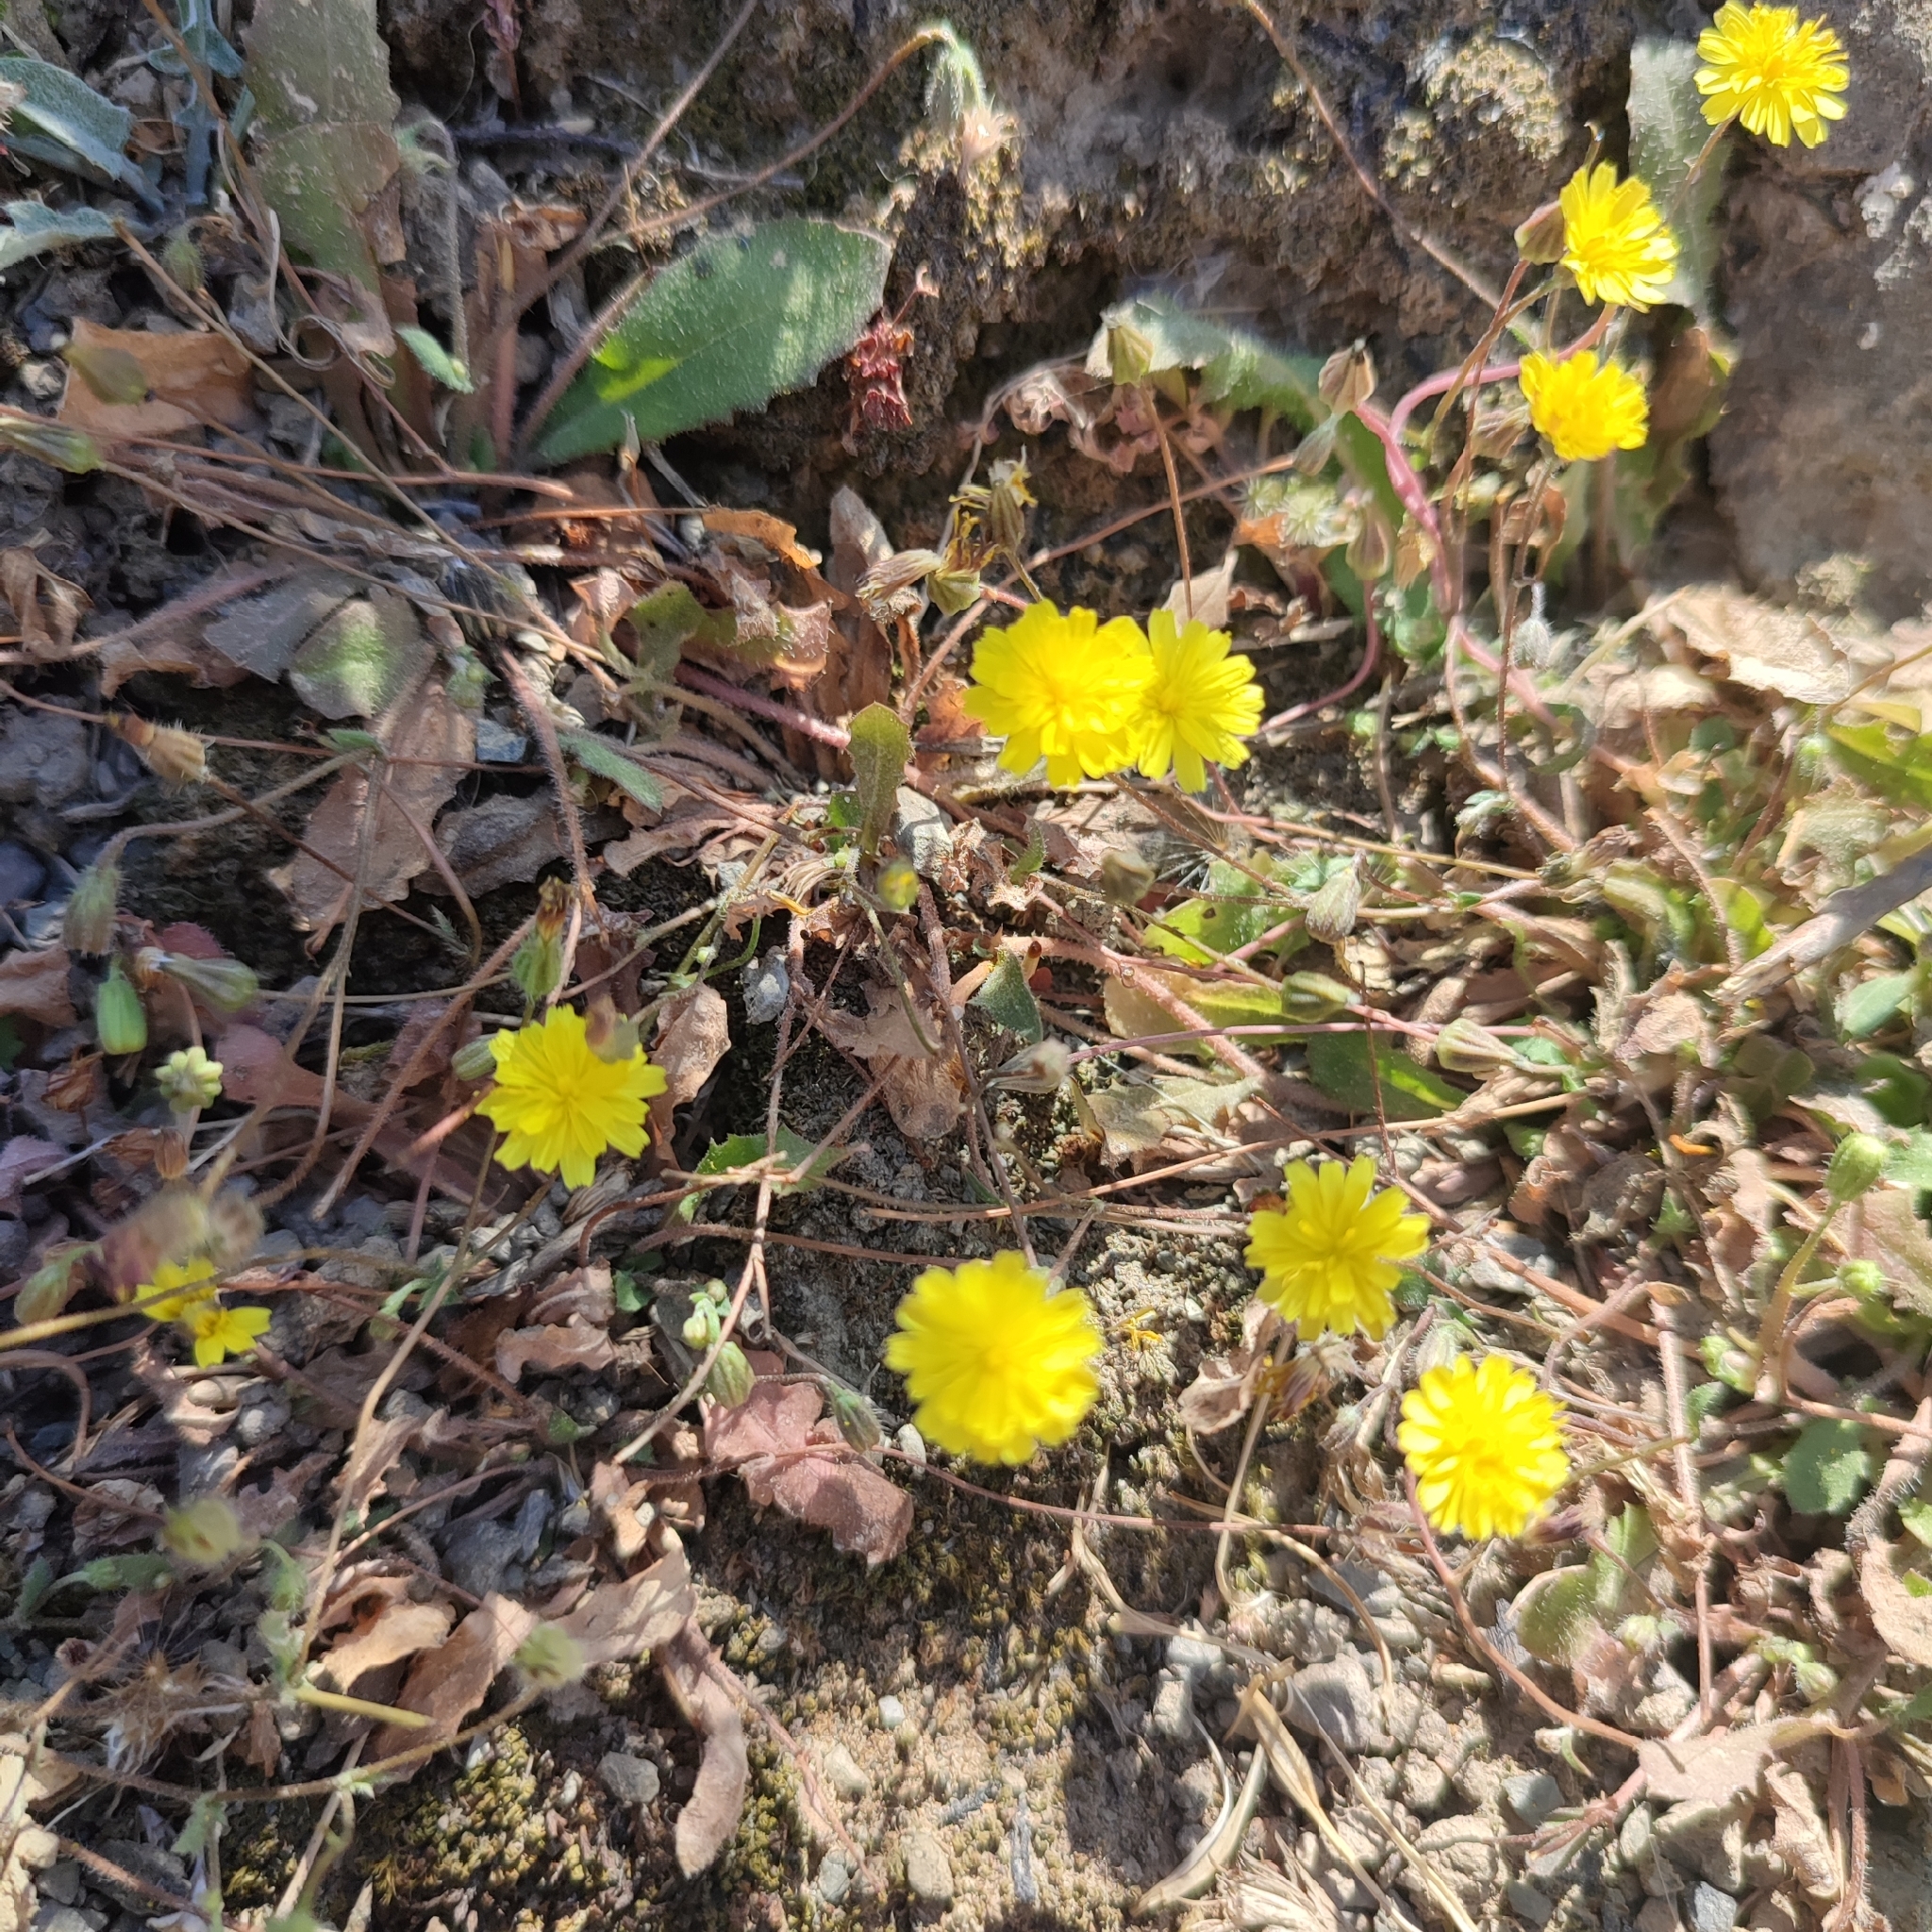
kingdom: Plantae
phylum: Tracheophyta
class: Magnoliopsida
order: Asterales
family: Asteraceae
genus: Crepis
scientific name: Crepis neglecta
